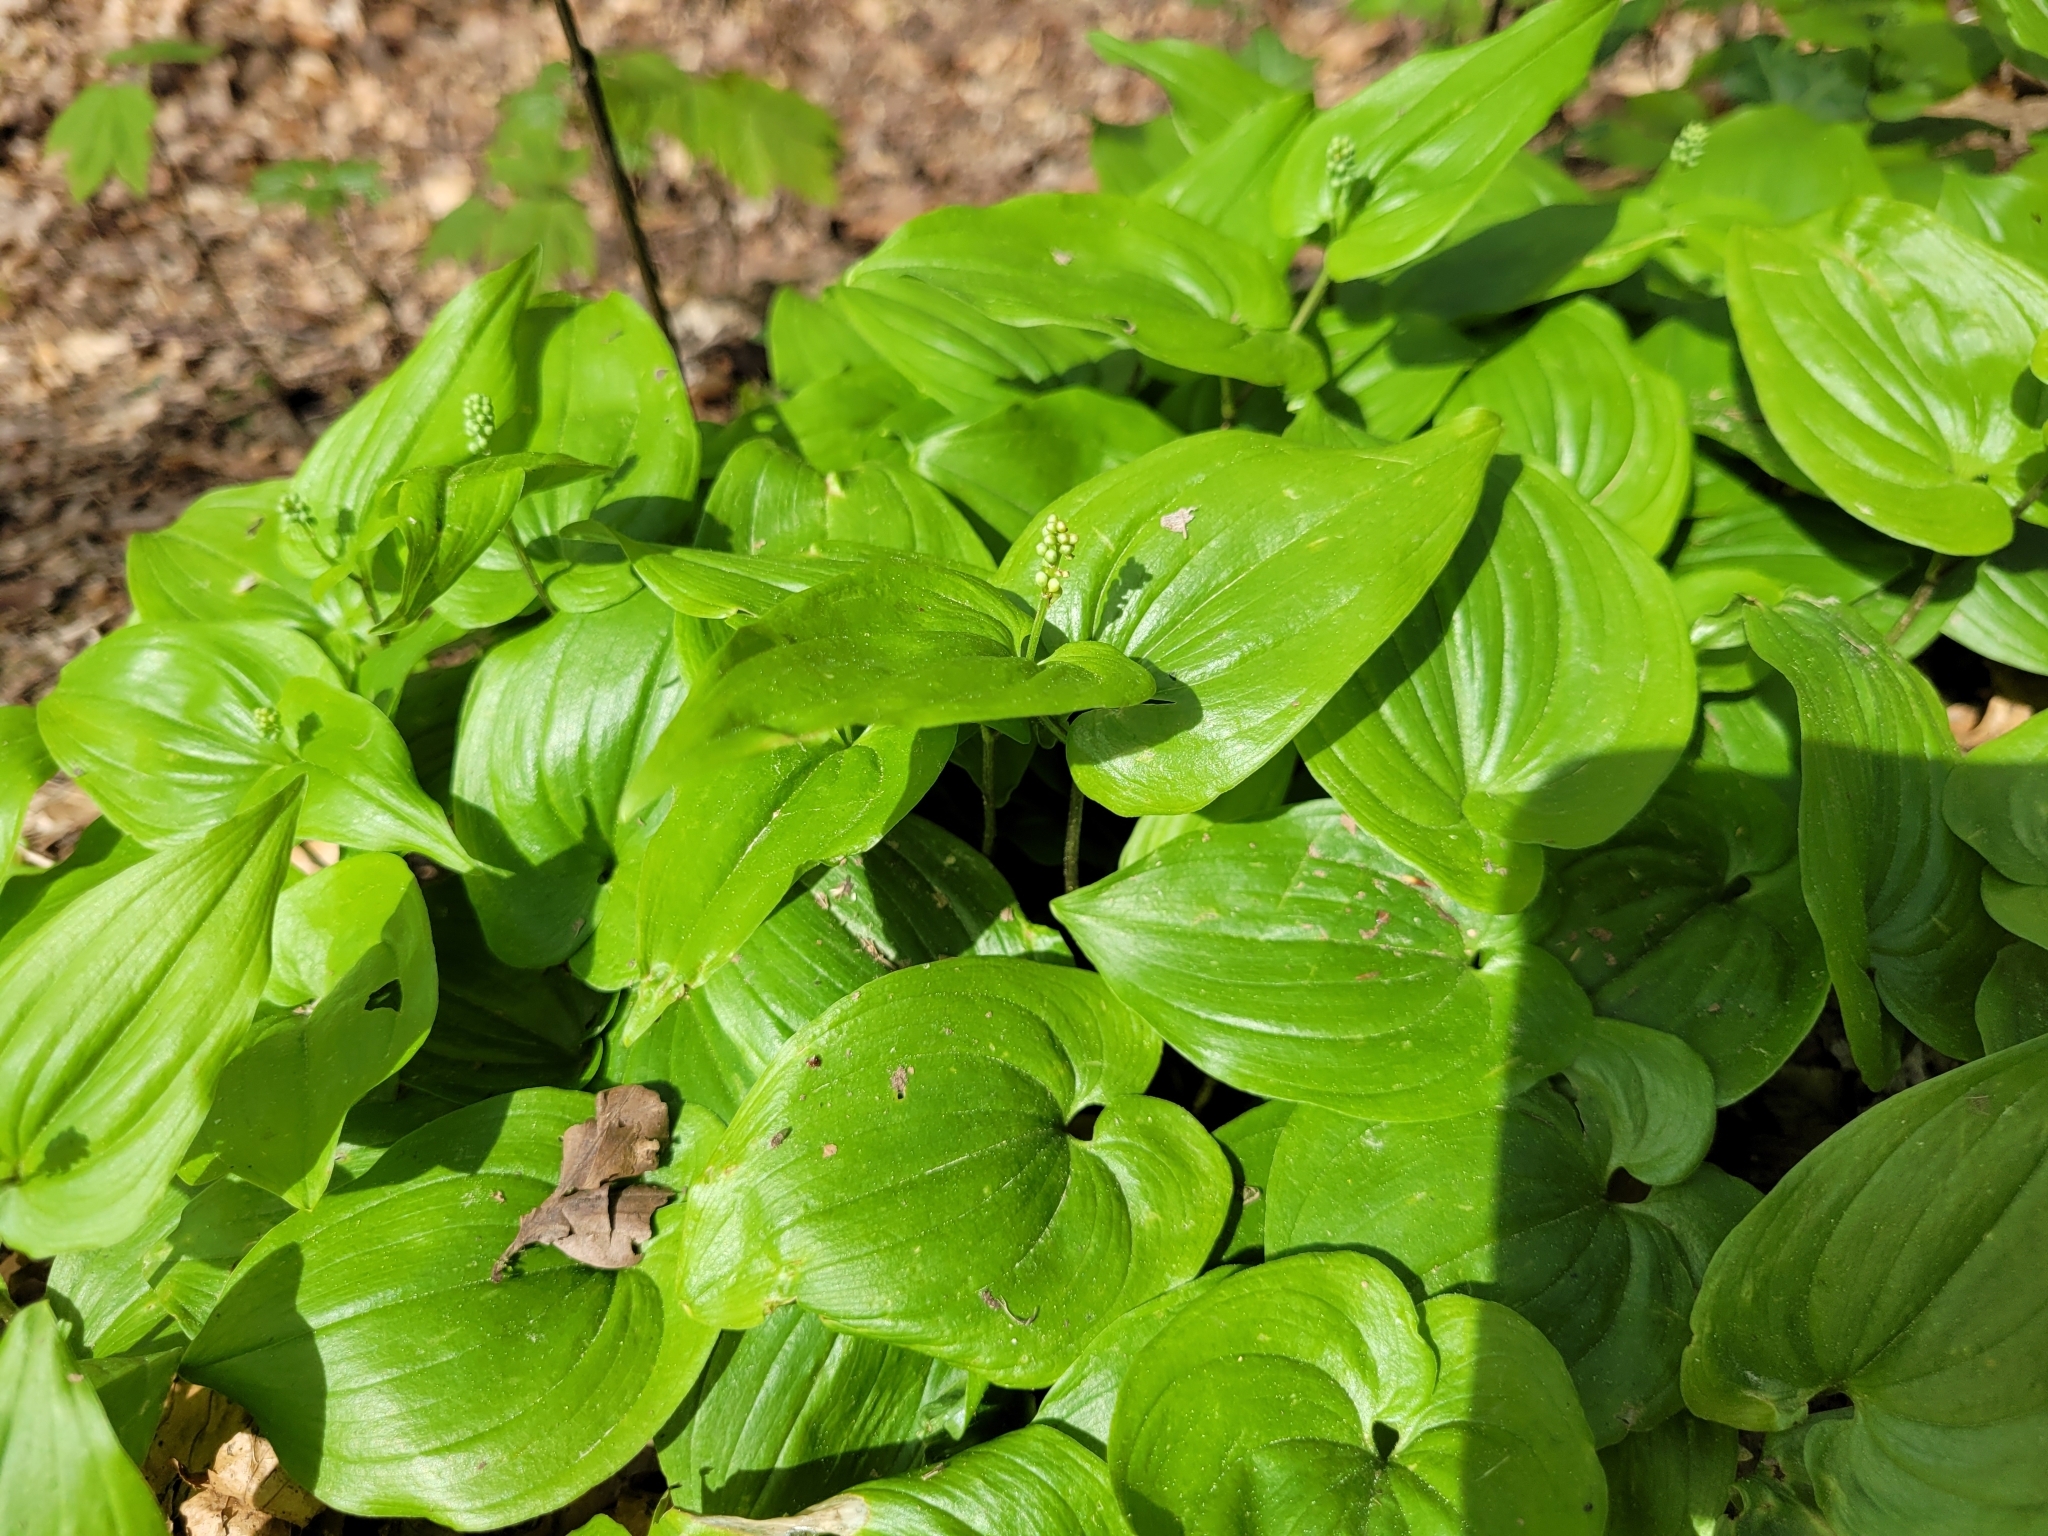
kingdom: Plantae
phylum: Tracheophyta
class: Liliopsida
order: Asparagales
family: Asparagaceae
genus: Maianthemum
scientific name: Maianthemum bifolium
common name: May lily
